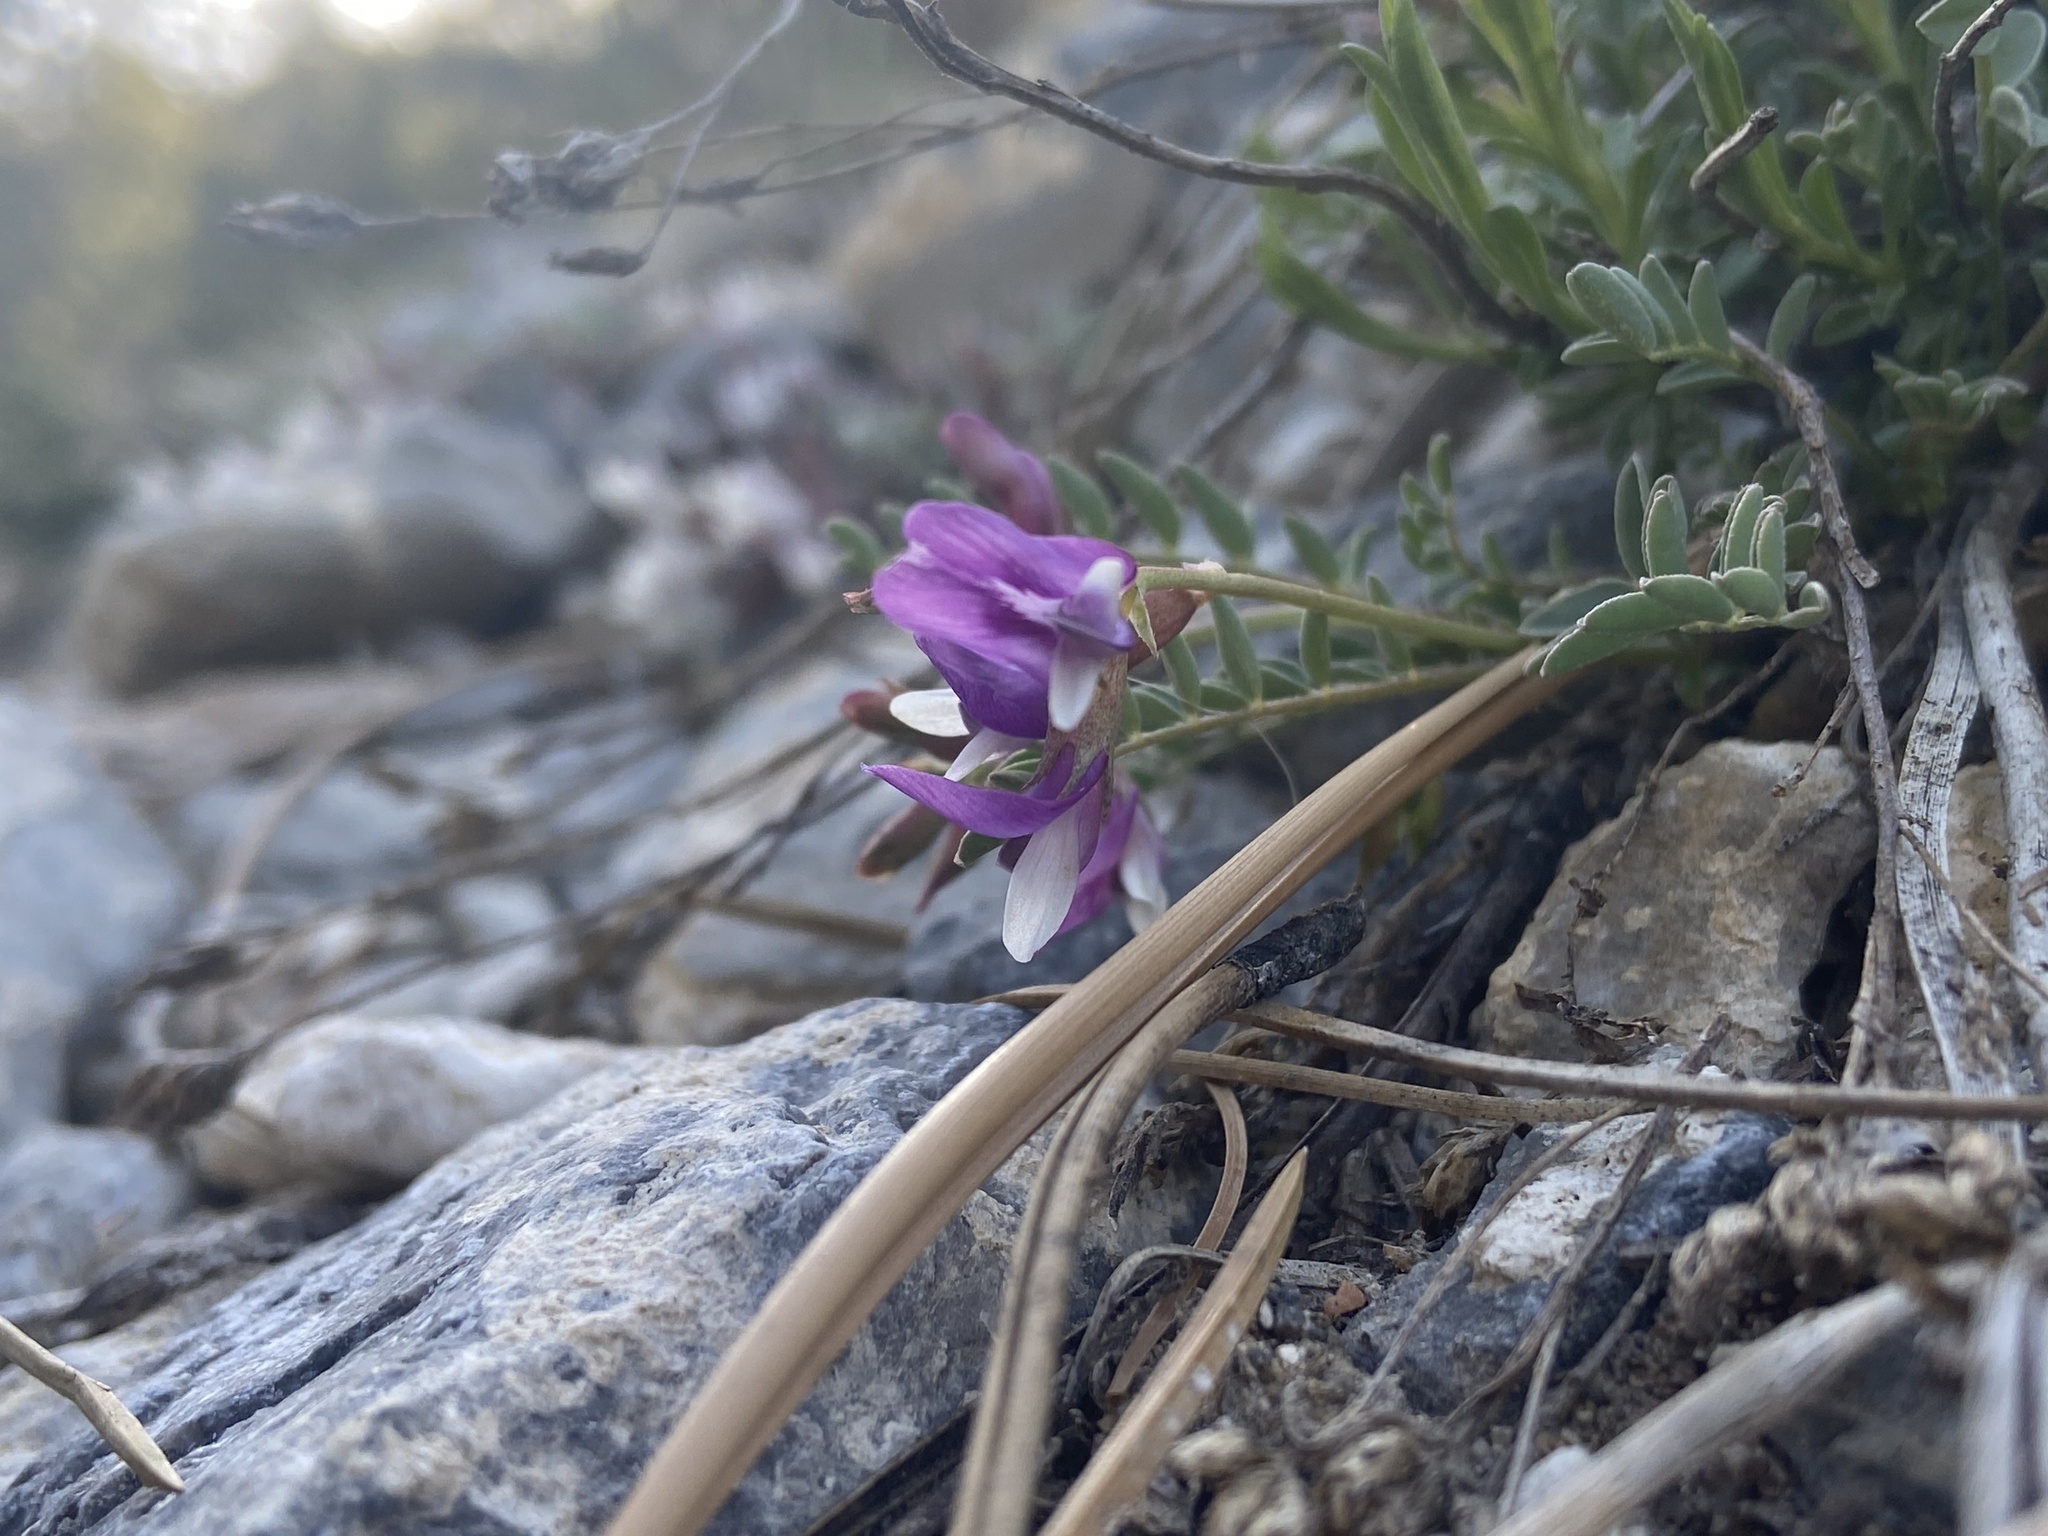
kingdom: Plantae
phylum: Tracheophyta
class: Magnoliopsida
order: Fabales
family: Fabaceae
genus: Astragalus
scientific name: Astragalus oophorus
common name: Egg milkvetch
